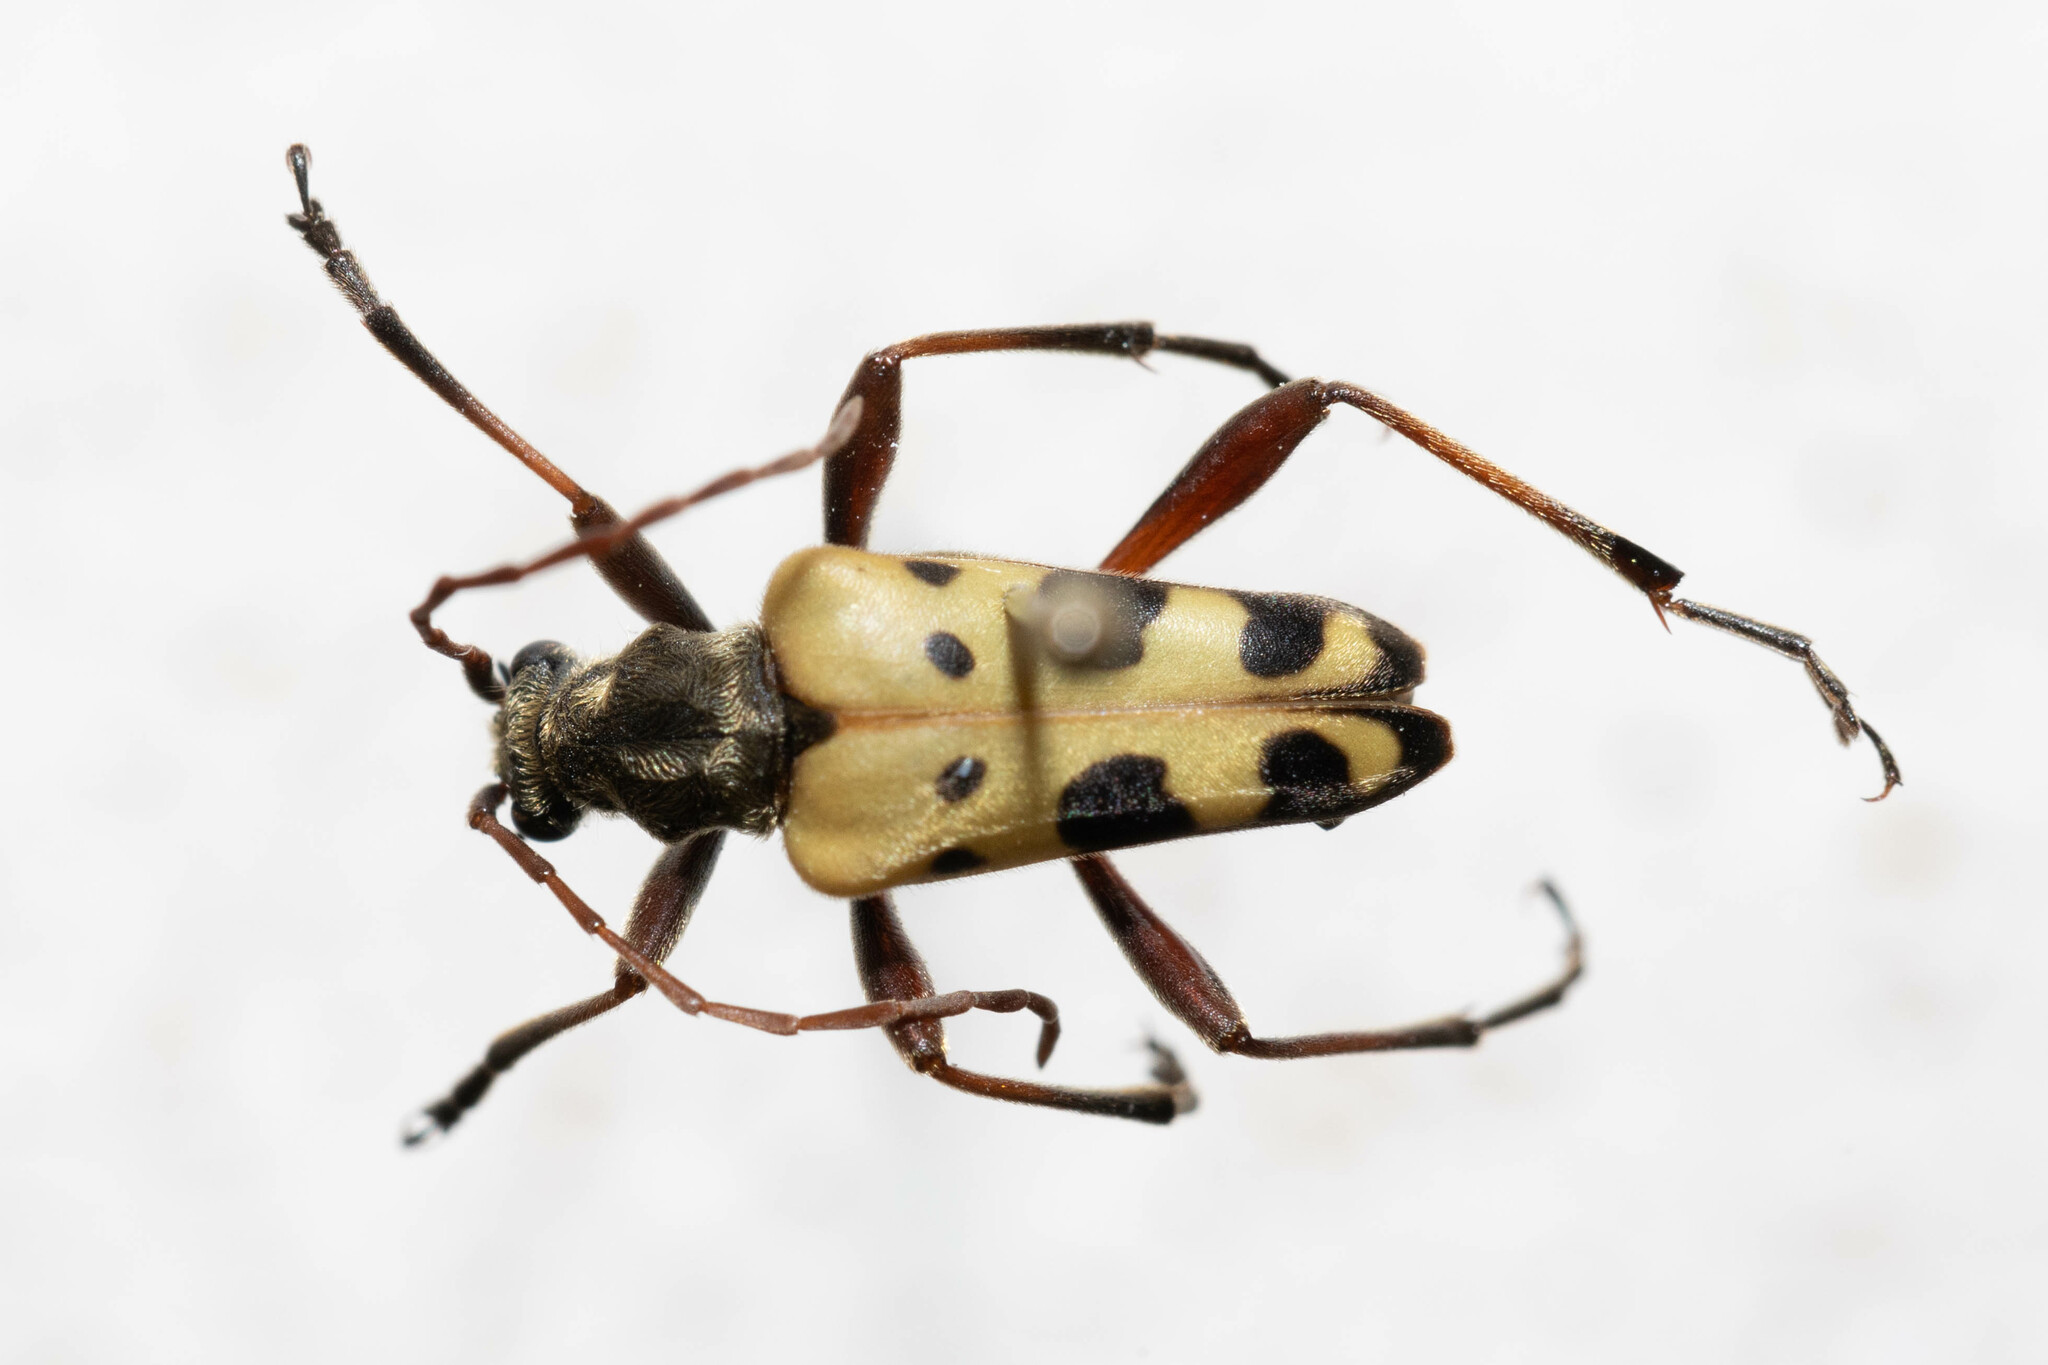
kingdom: Animalia
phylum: Arthropoda
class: Insecta
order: Coleoptera
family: Cerambycidae
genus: Evodinus
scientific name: Evodinus monticola
